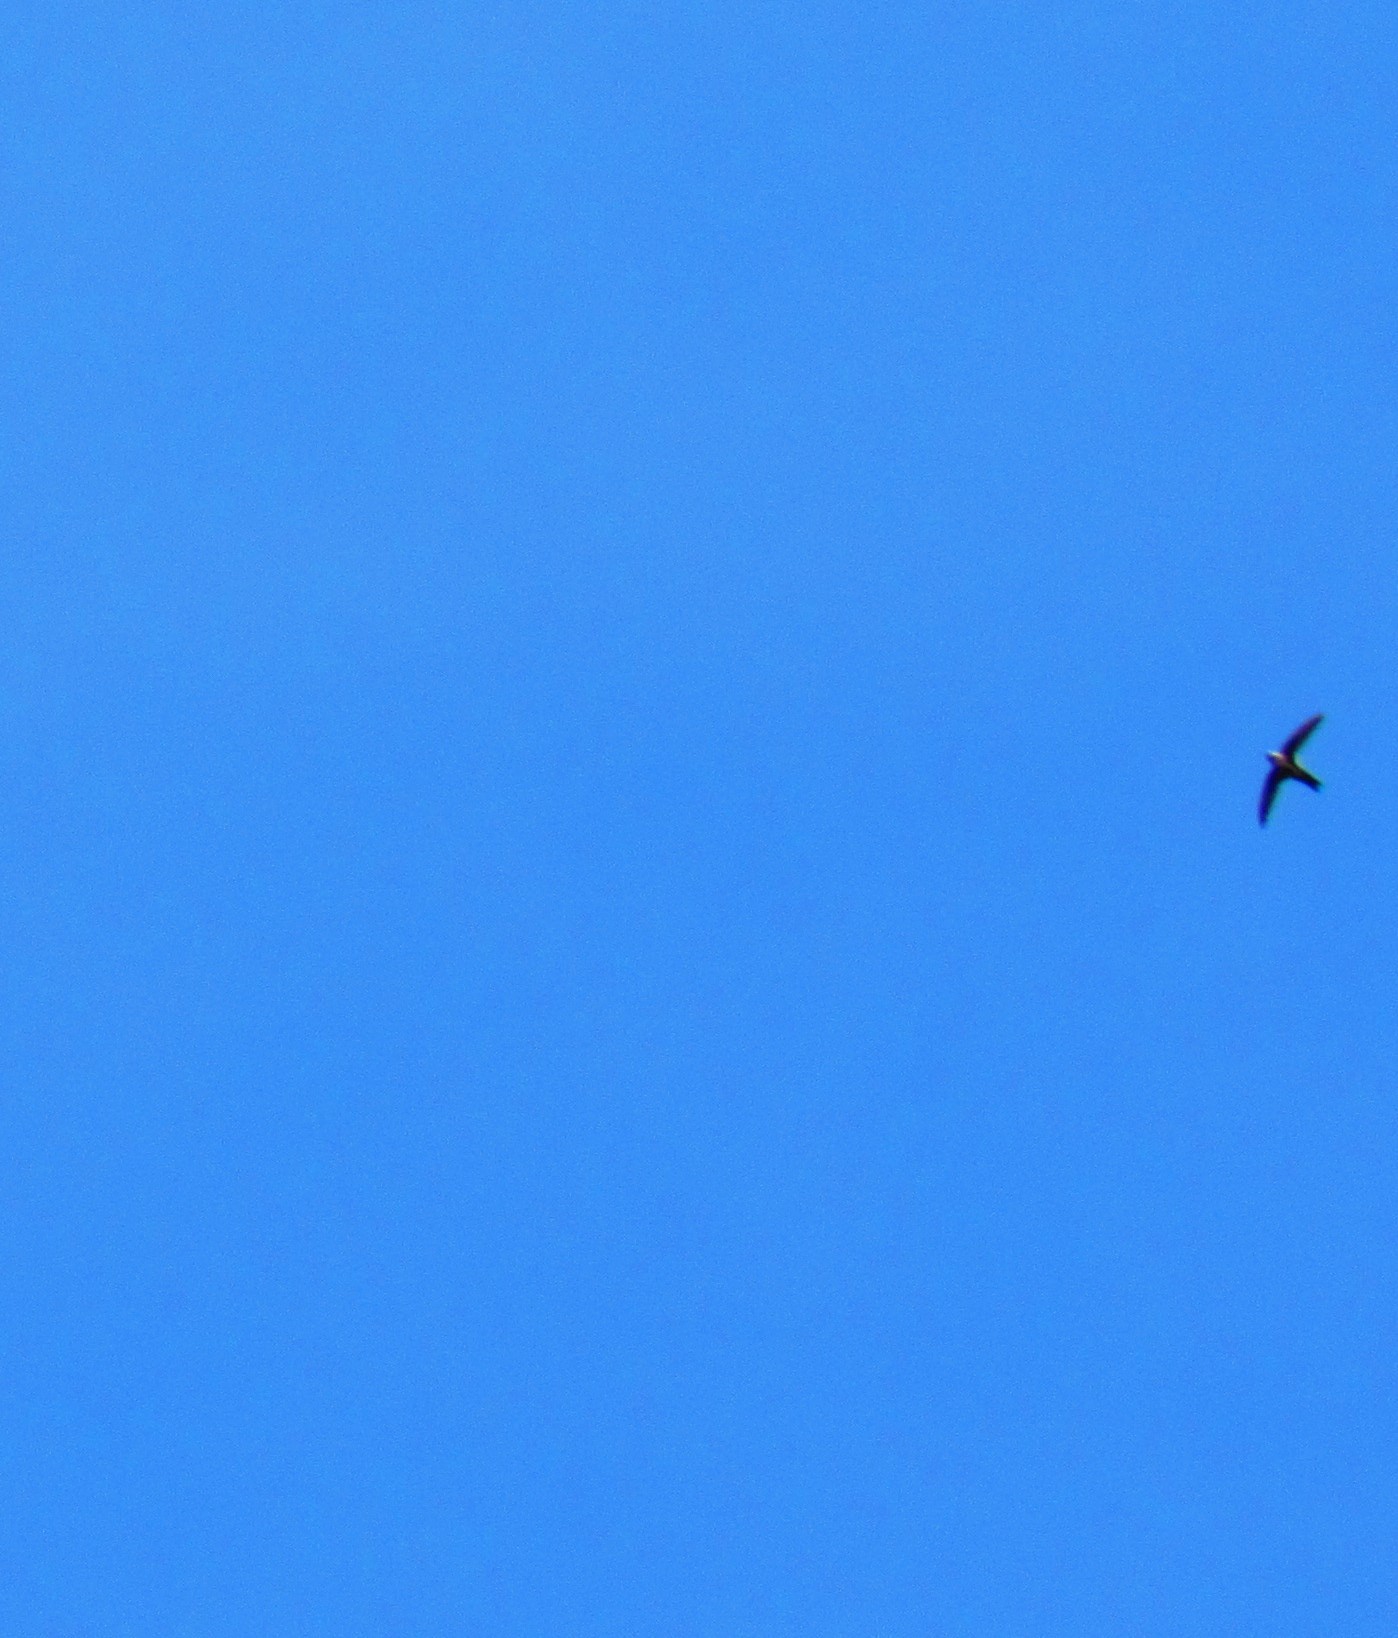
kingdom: Animalia
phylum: Chordata
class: Aves
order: Apodiformes
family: Apodidae
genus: Aeronautes
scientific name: Aeronautes saxatalis
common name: White-throated swift
